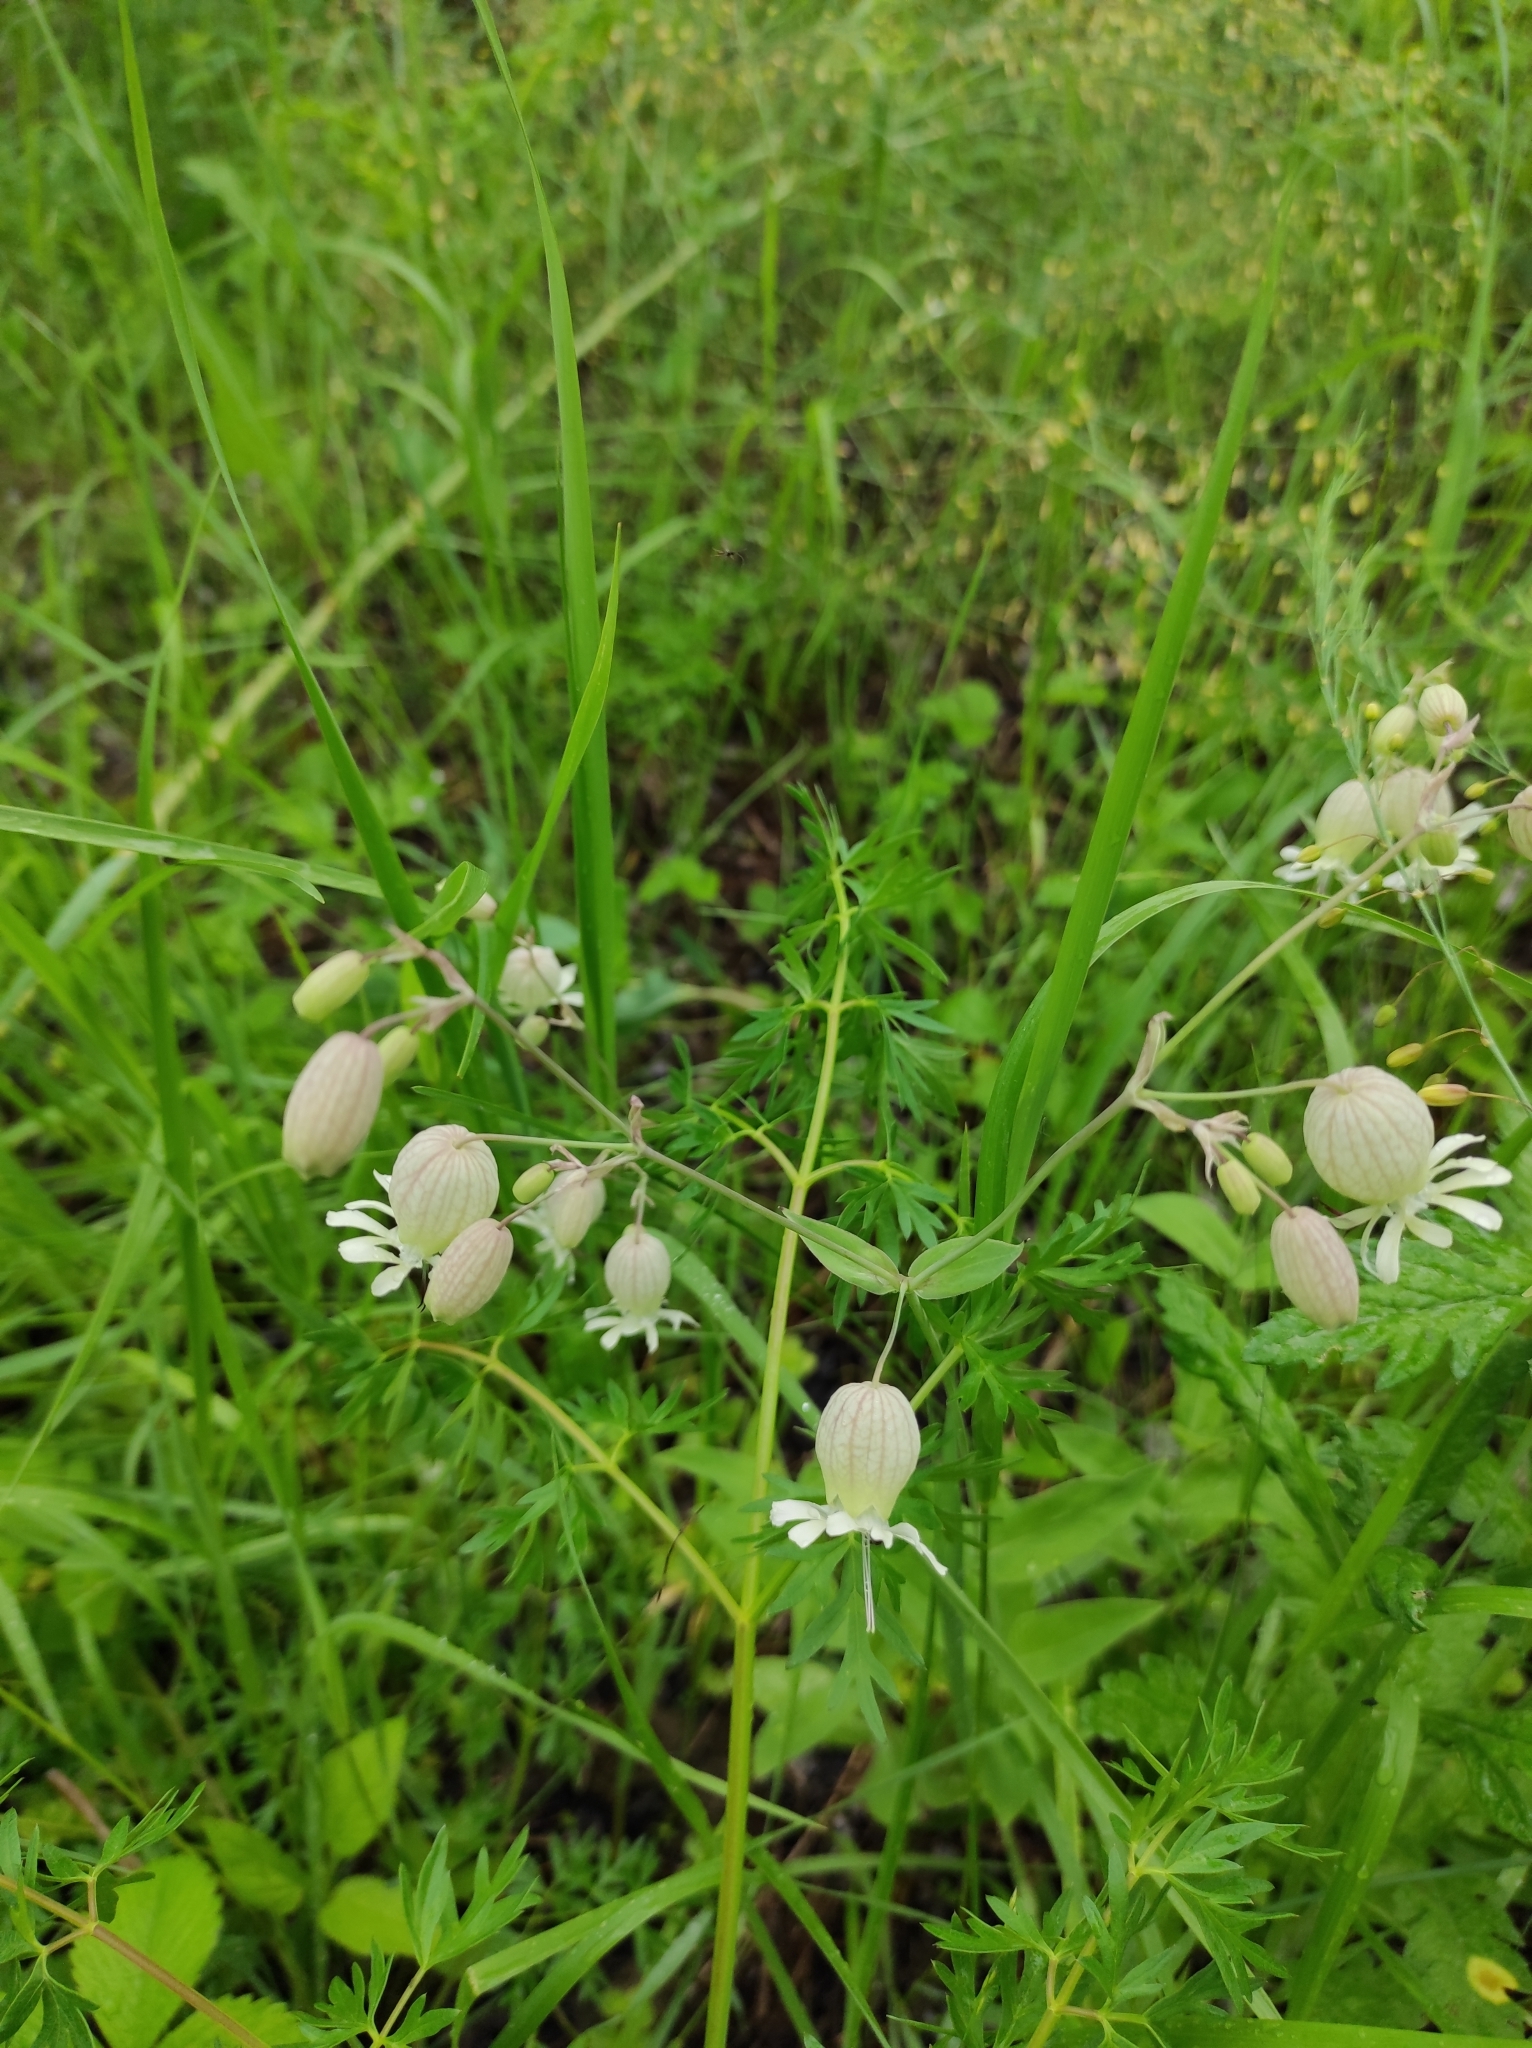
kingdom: Plantae
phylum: Tracheophyta
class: Magnoliopsida
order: Caryophyllales
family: Caryophyllaceae
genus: Silene
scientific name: Silene vulgaris
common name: Bladder campion
